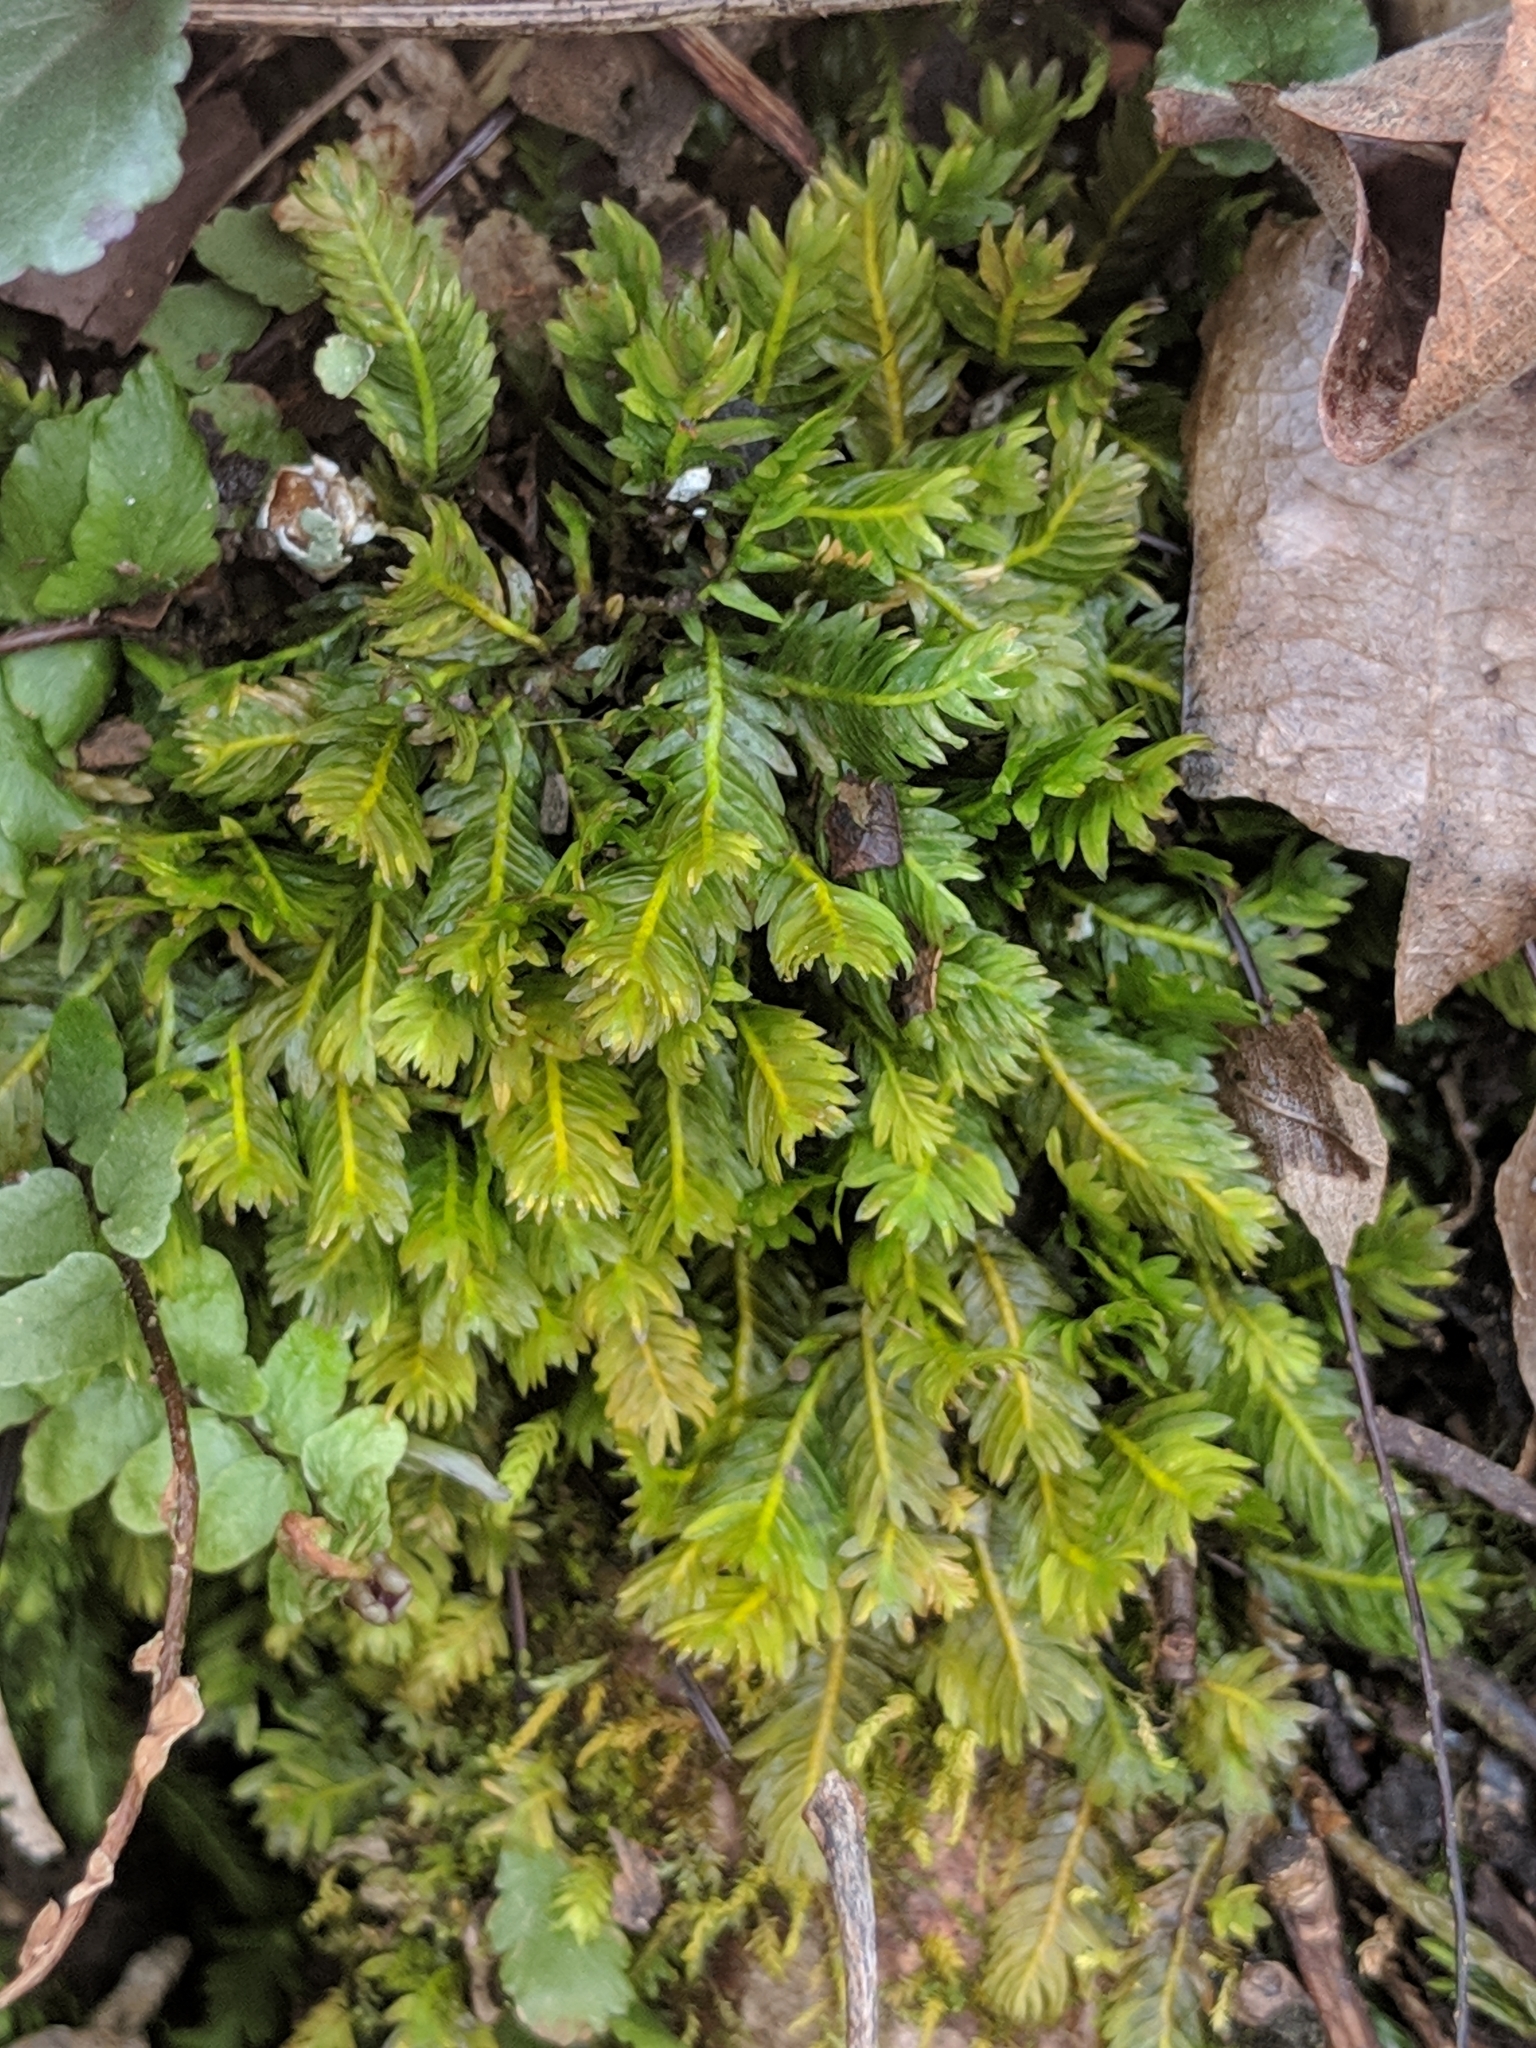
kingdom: Plantae
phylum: Bryophyta
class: Bryopsida
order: Dicranales
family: Fissidentaceae
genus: Fissidens
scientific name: Fissidens dubius
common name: Rock pocket moss
